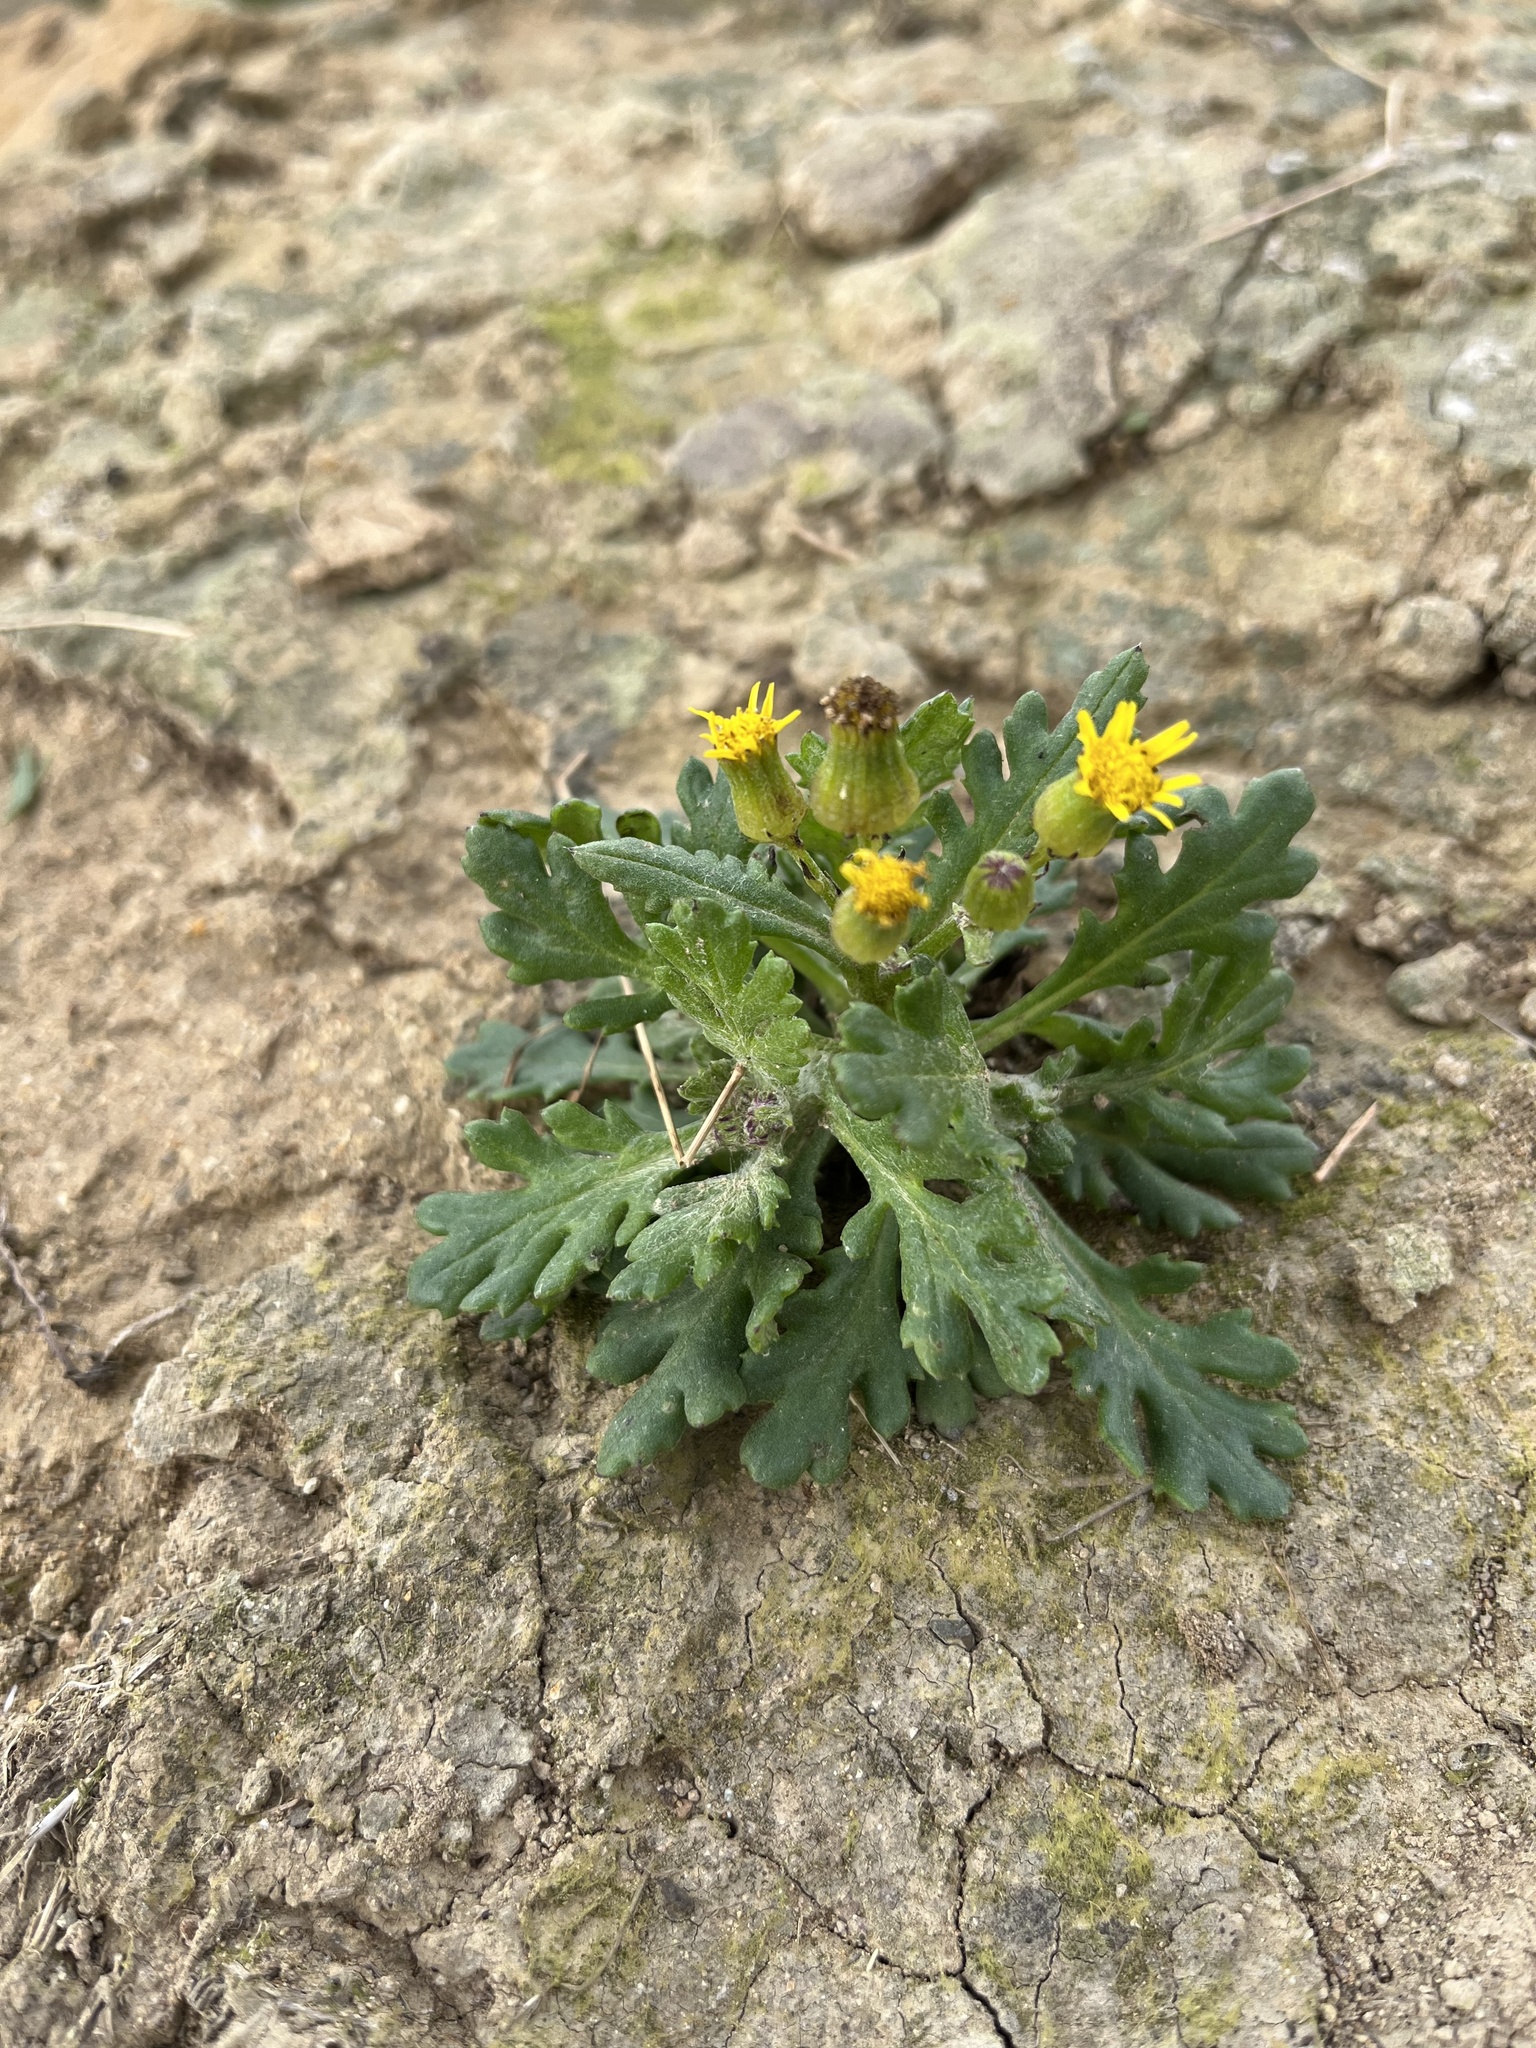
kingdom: Plantae
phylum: Tracheophyta
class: Magnoliopsida
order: Asterales
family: Asteraceae
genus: Senecio
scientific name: Senecio radiolatus
